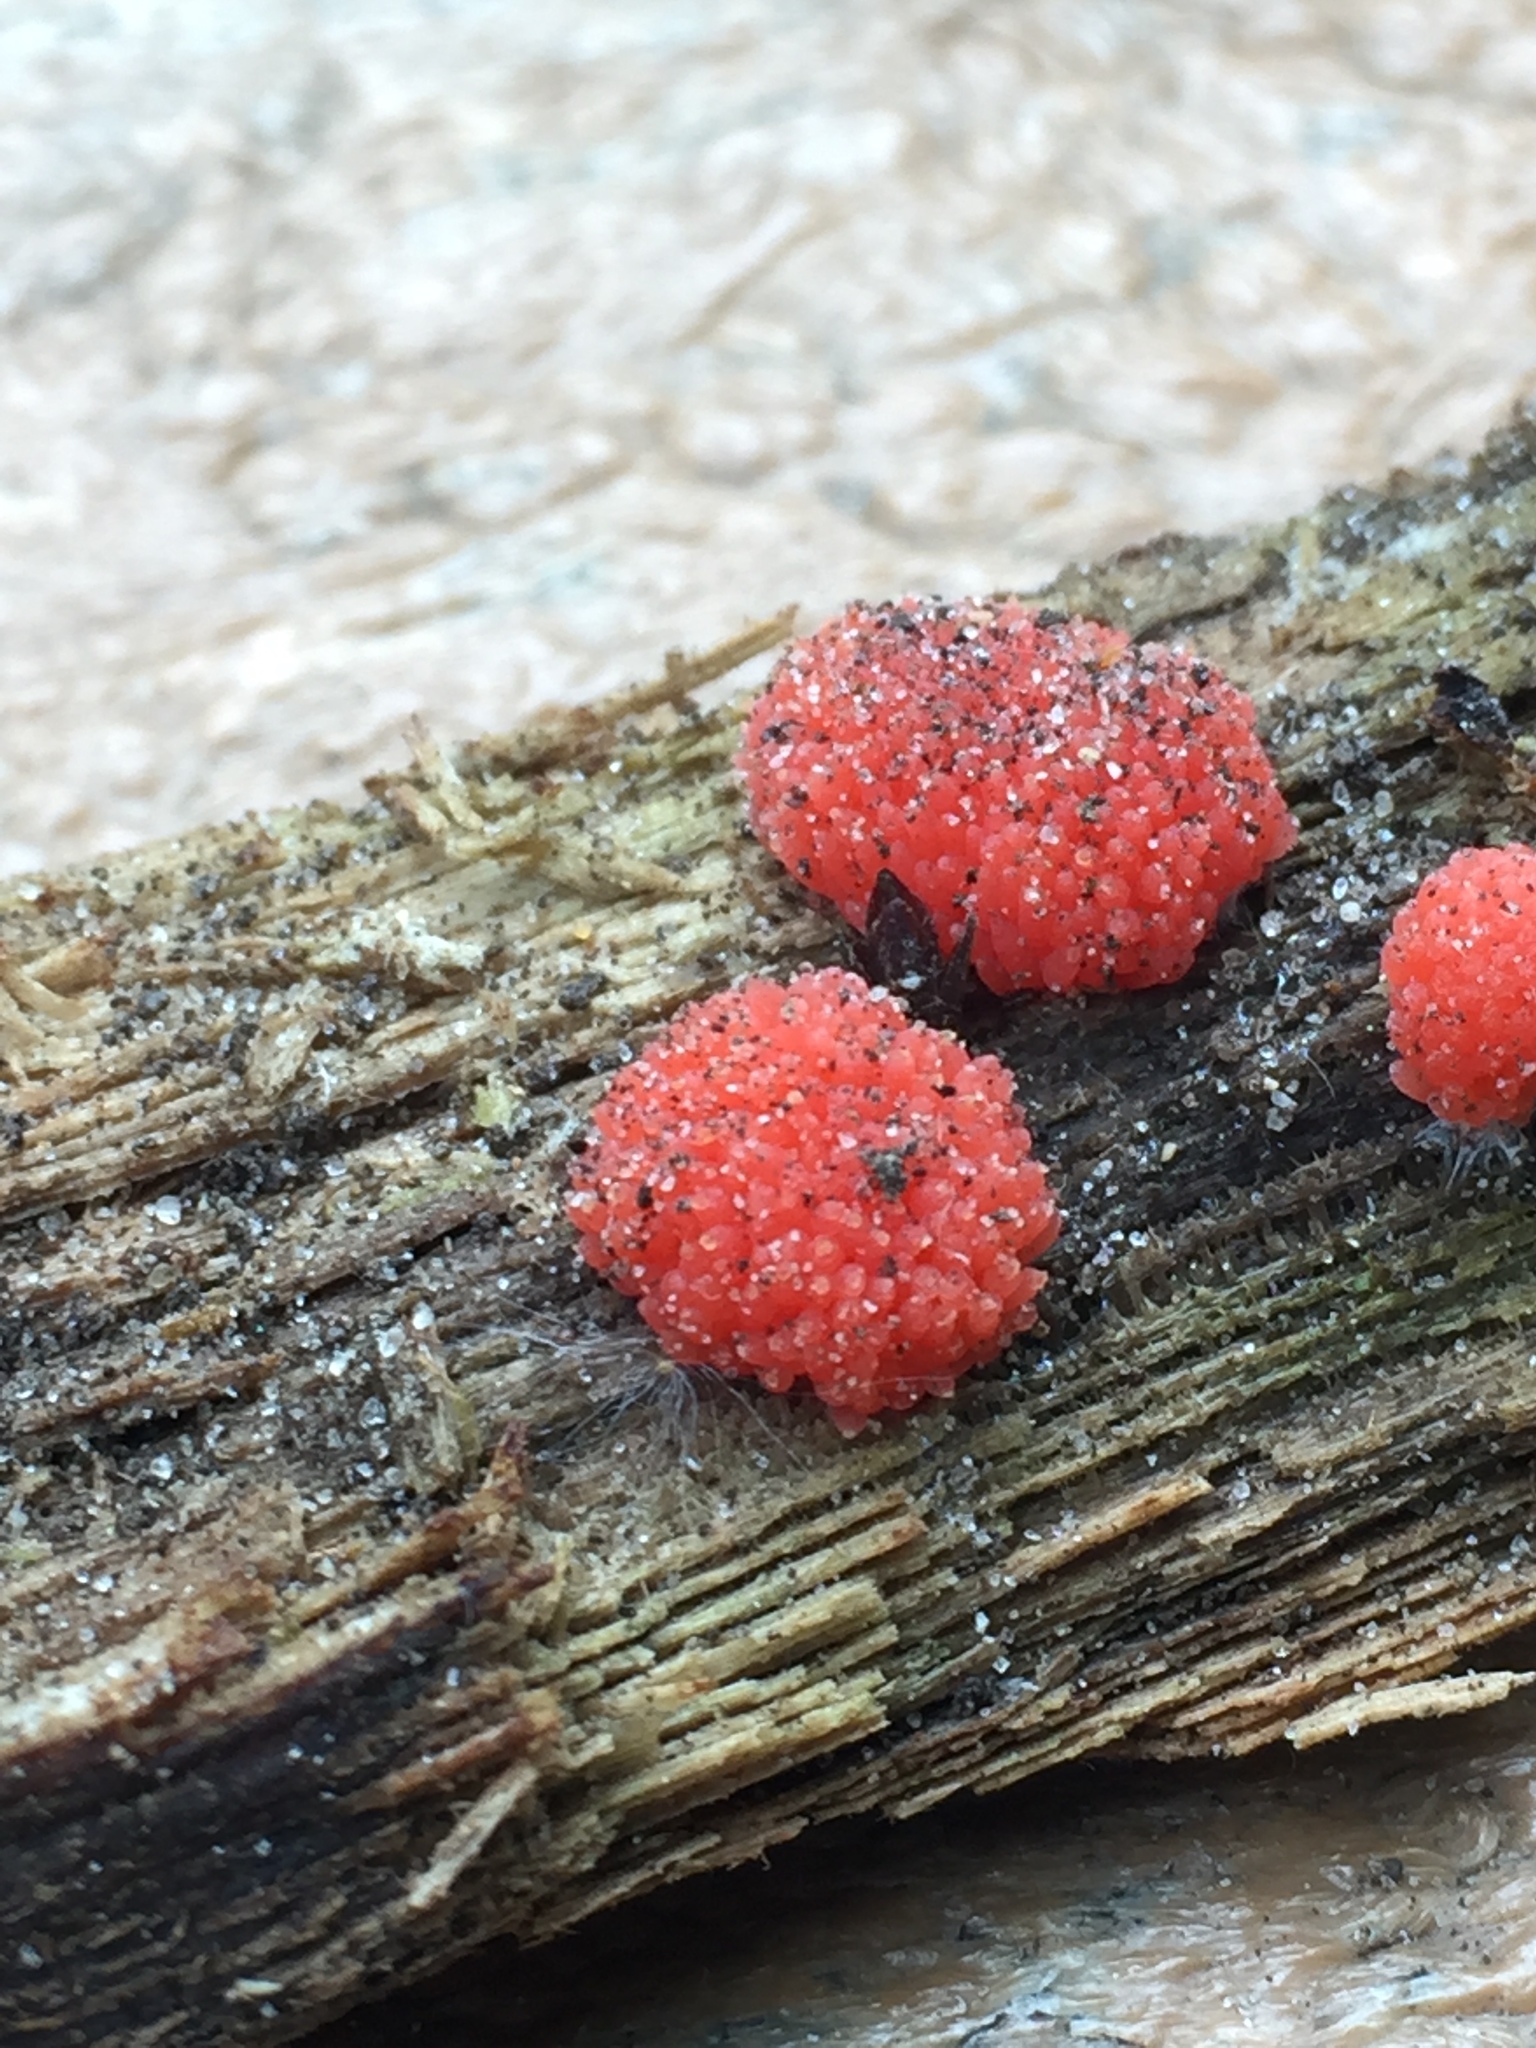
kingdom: Protozoa
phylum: Mycetozoa
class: Myxomycetes
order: Cribrariales
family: Tubiferaceae
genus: Tubifera
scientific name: Tubifera ferruginosa
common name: Red raspberry slime mold
